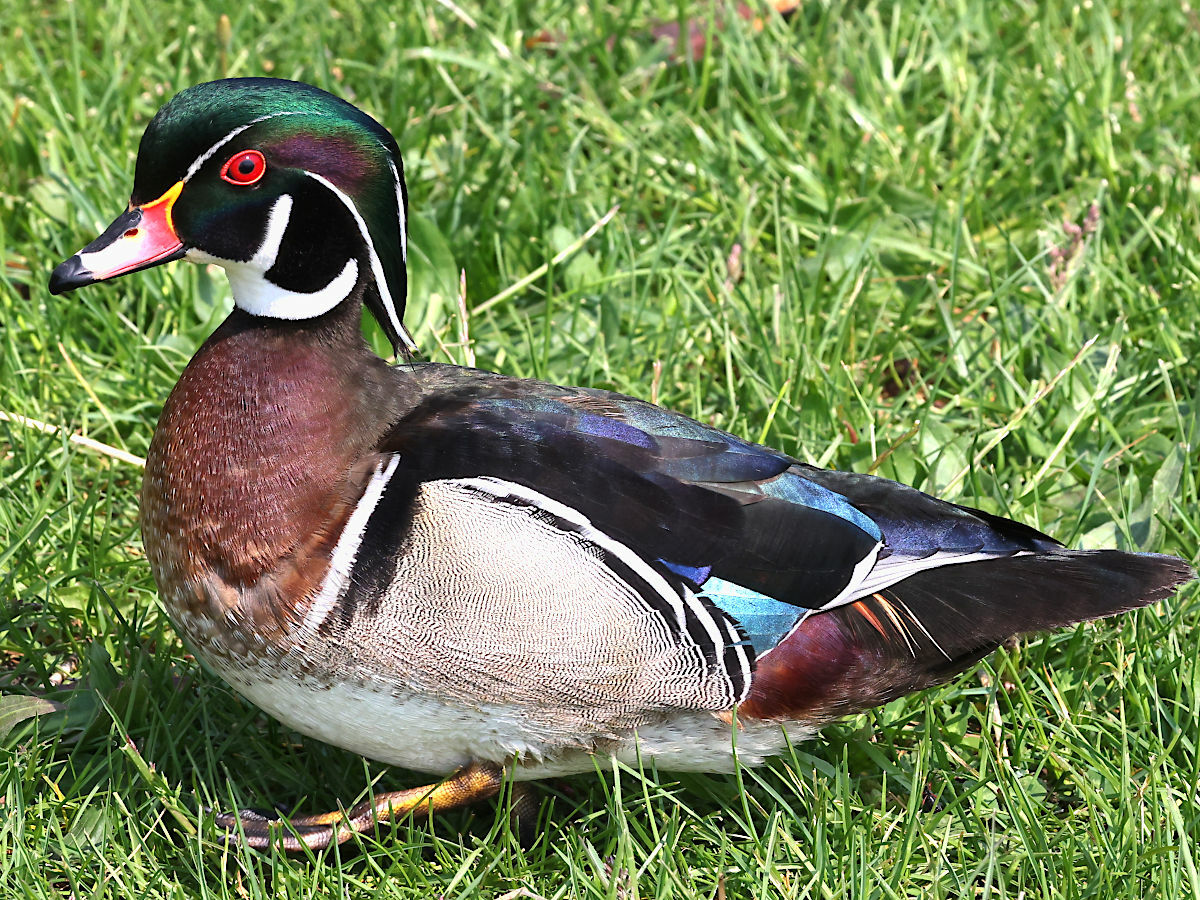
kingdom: Animalia
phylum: Chordata
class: Aves
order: Anseriformes
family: Anatidae
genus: Aix
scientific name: Aix sponsa
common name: Wood duck
